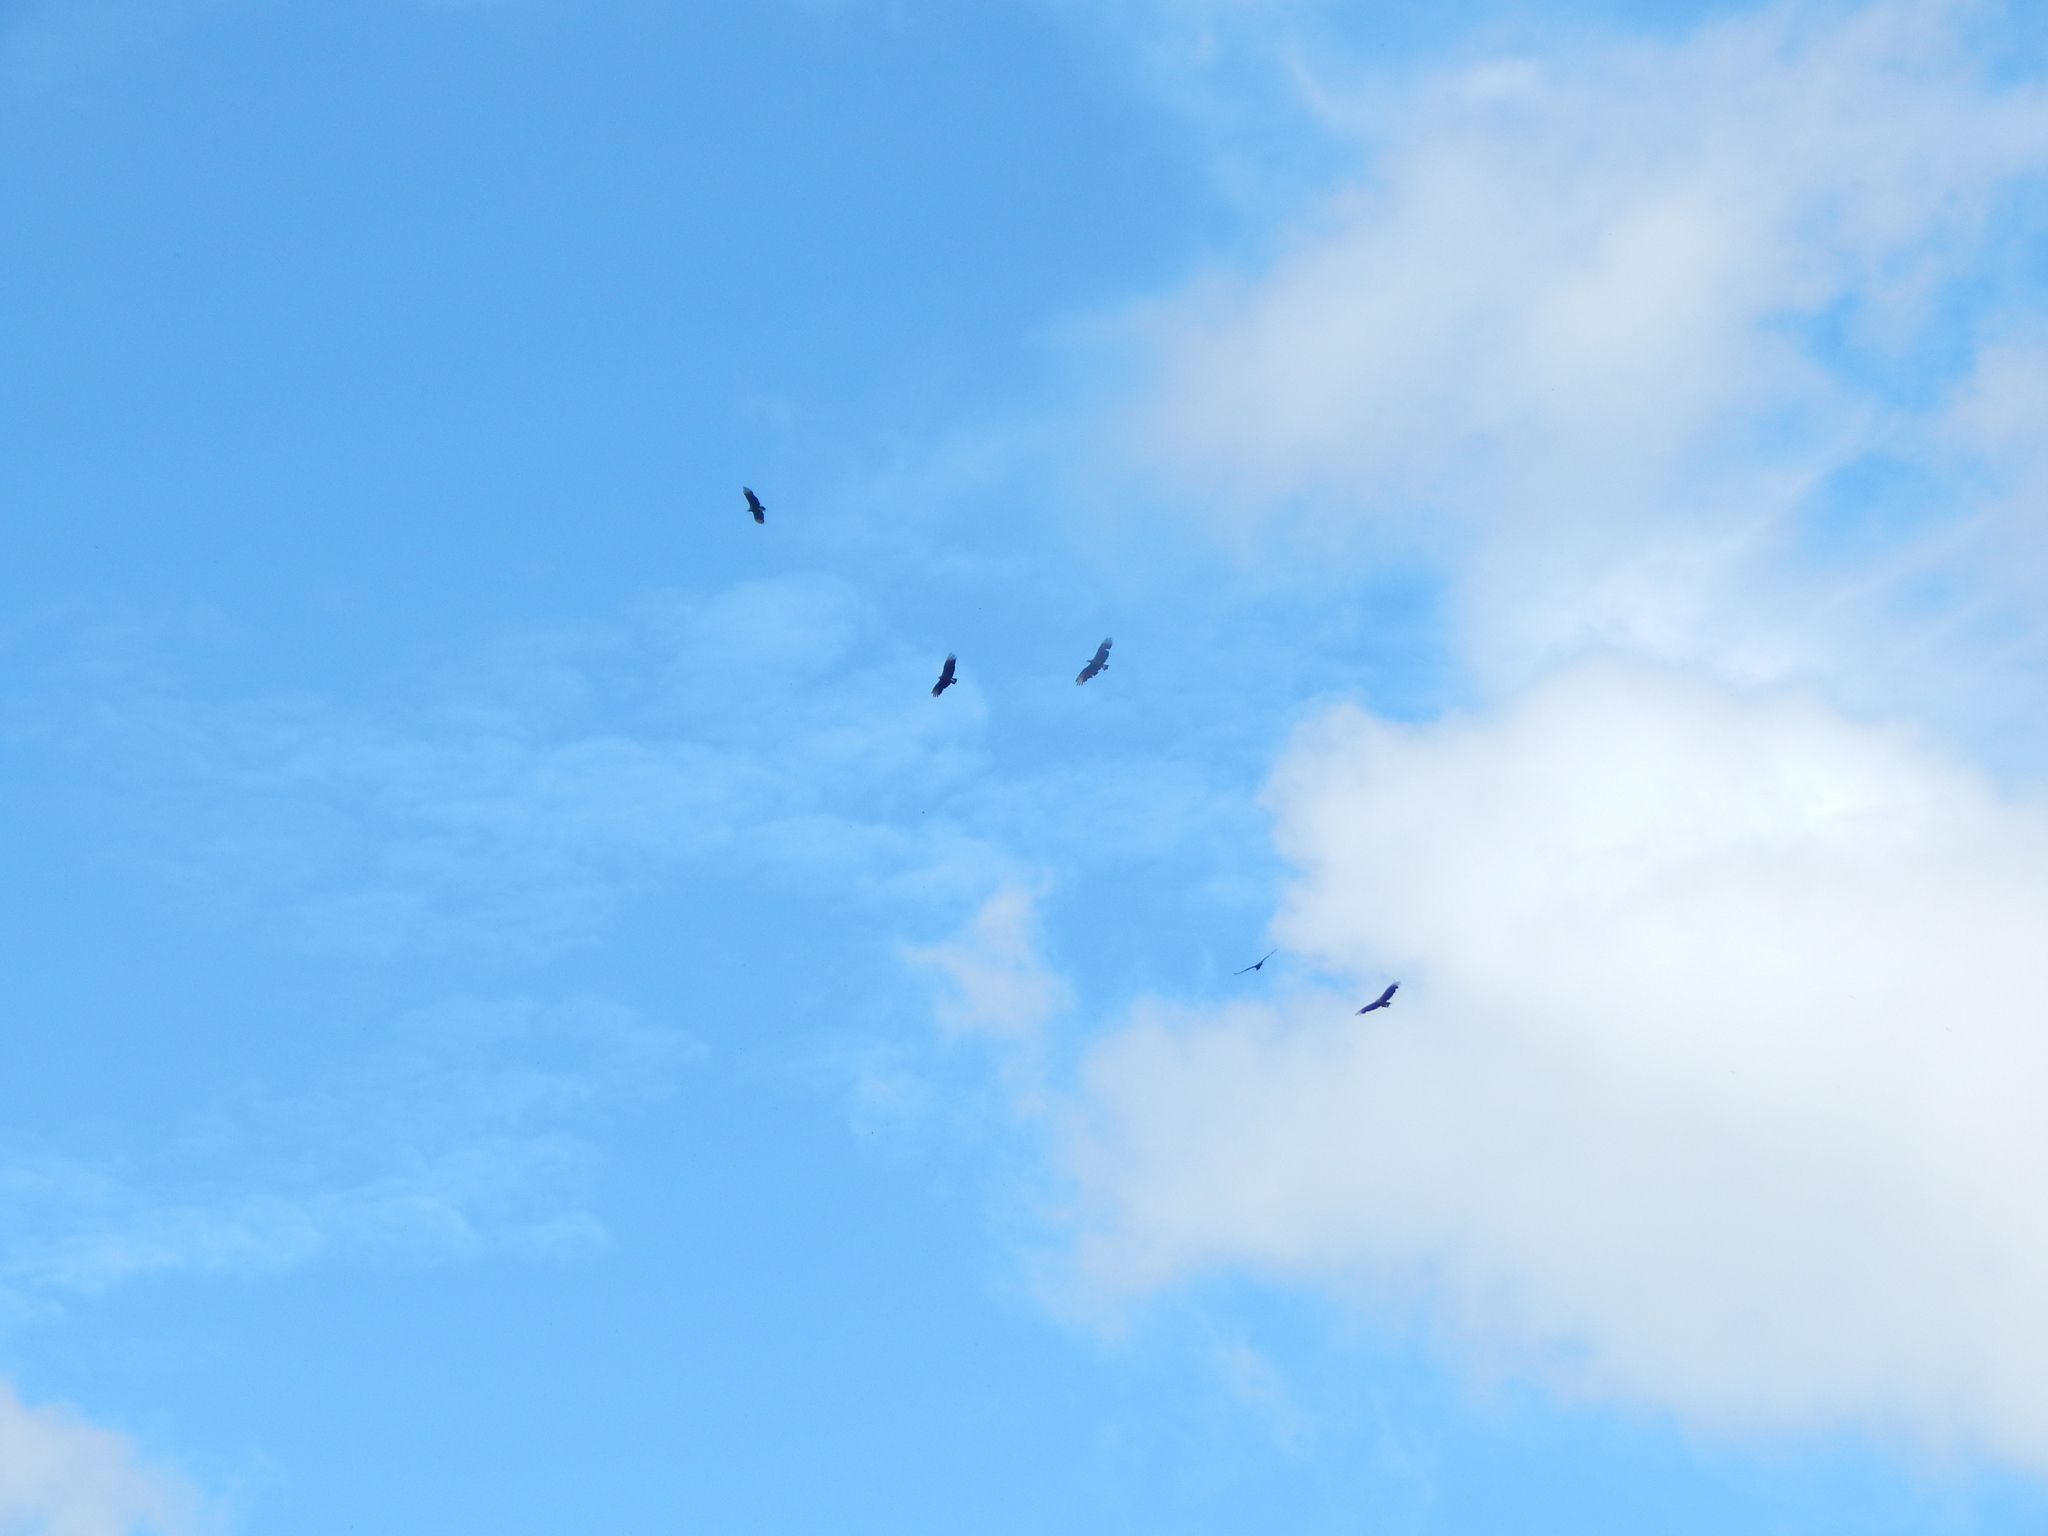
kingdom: Animalia
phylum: Chordata
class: Aves
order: Accipitriformes
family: Cathartidae
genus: Cathartes
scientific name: Cathartes aura
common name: Turkey vulture
